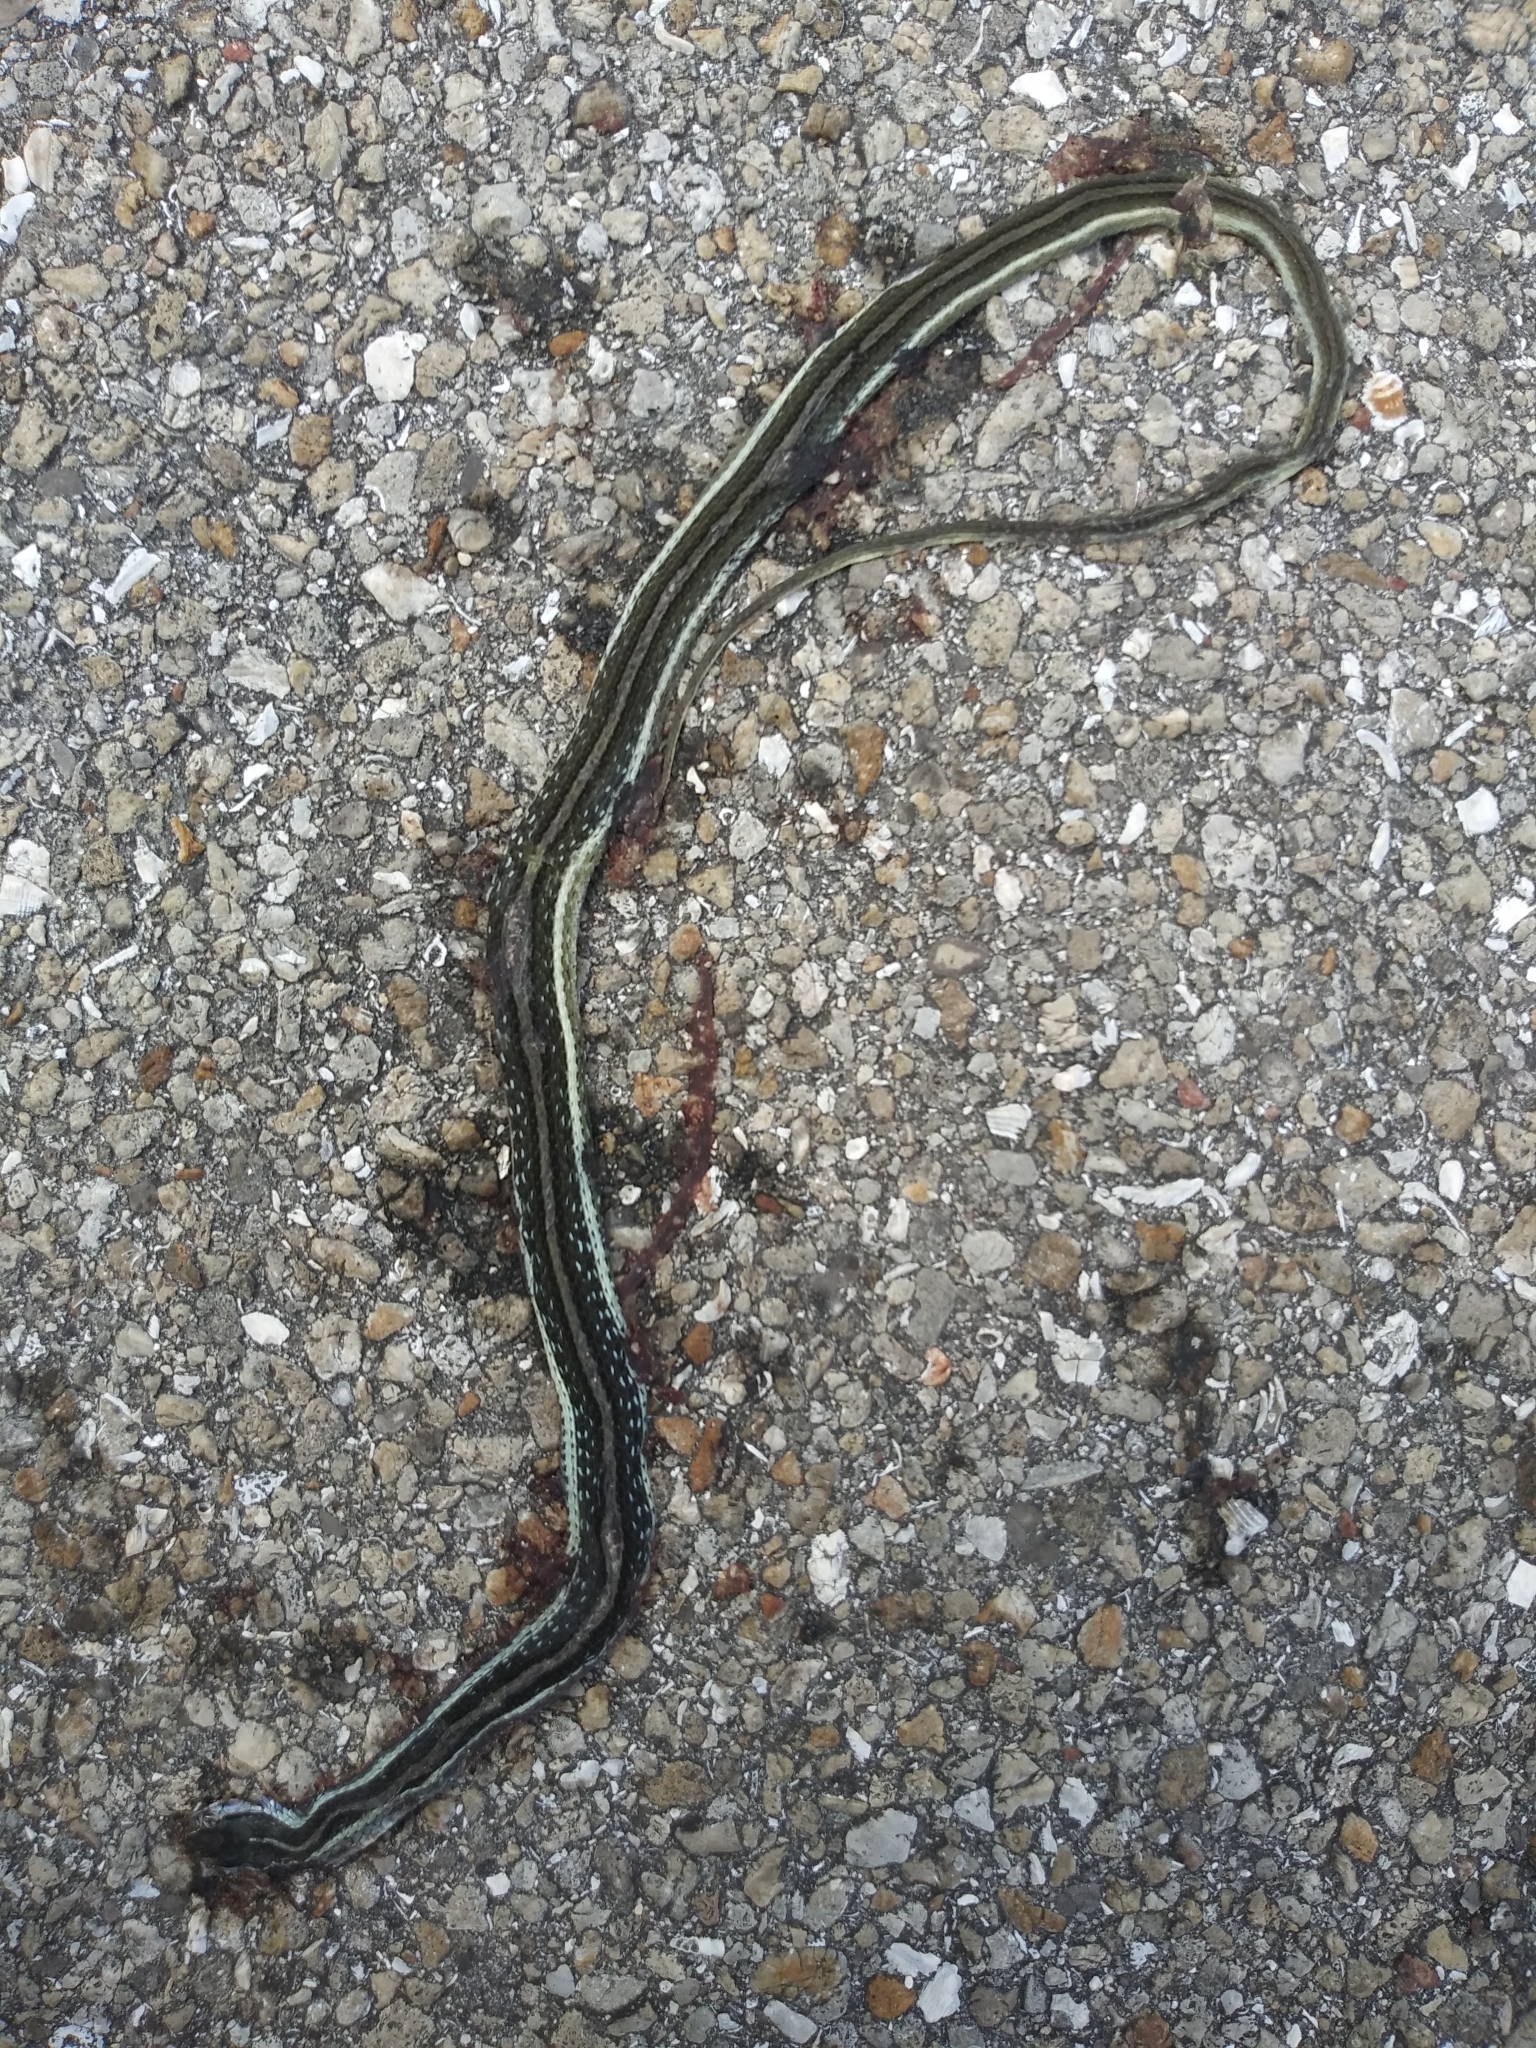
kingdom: Animalia
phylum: Chordata
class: Squamata
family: Colubridae
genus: Thamnophis
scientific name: Thamnophis saurita
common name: Eastern ribbonsnake
